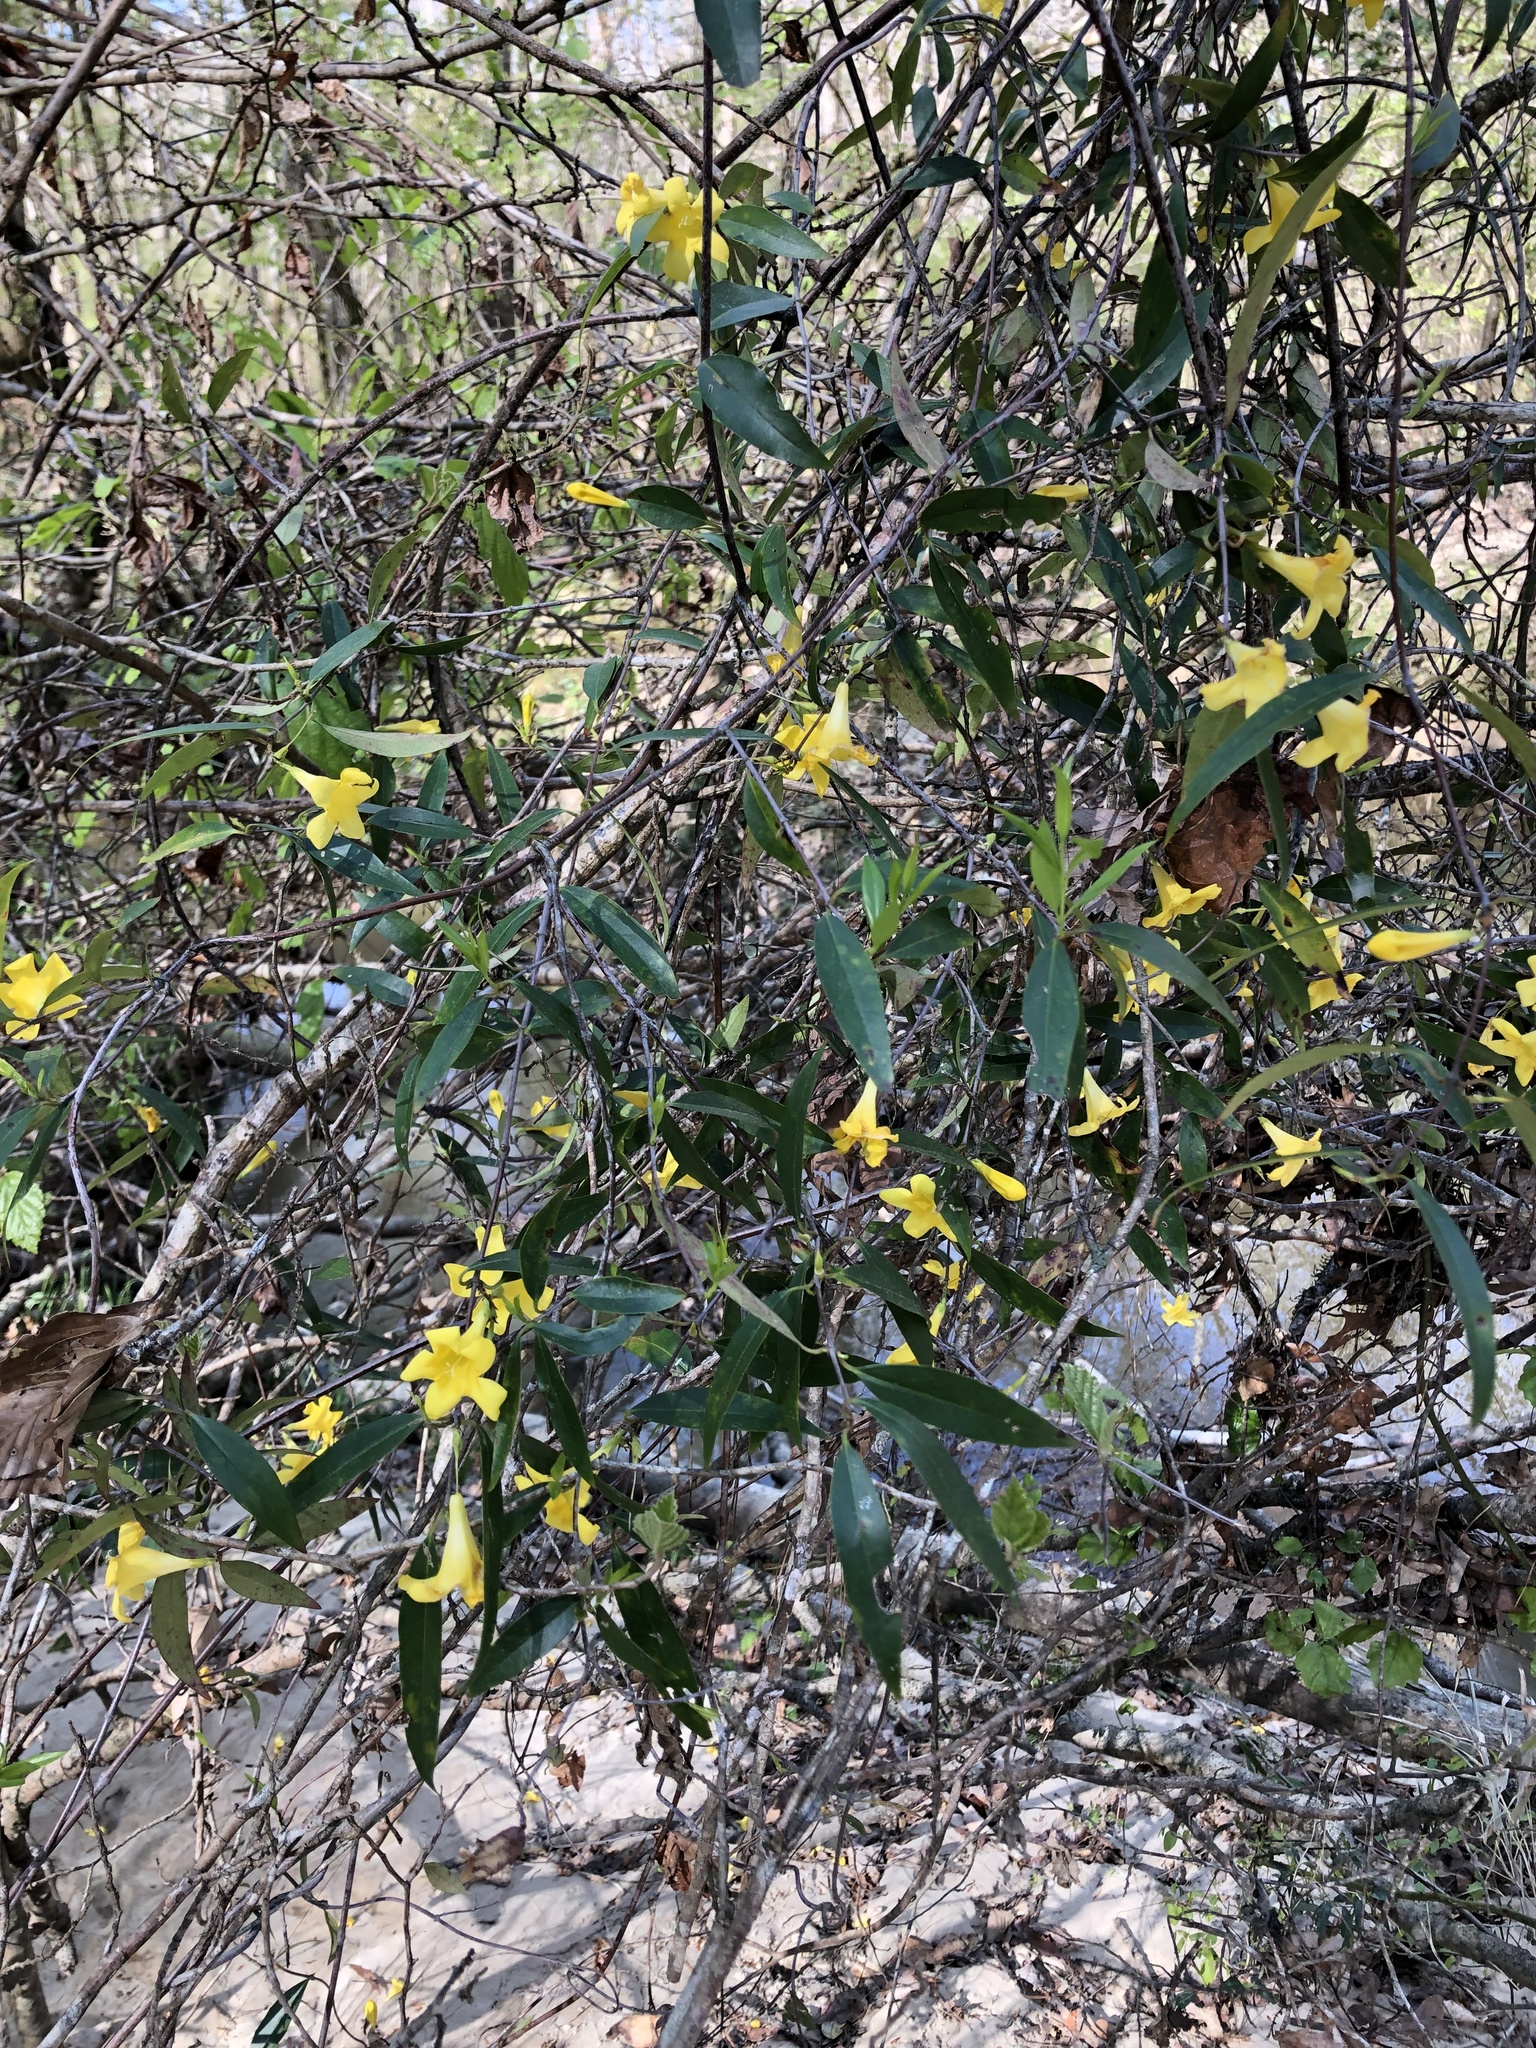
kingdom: Plantae
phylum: Tracheophyta
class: Magnoliopsida
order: Gentianales
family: Gelsemiaceae
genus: Gelsemium
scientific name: Gelsemium sempervirens
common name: Carolina-jasmine
